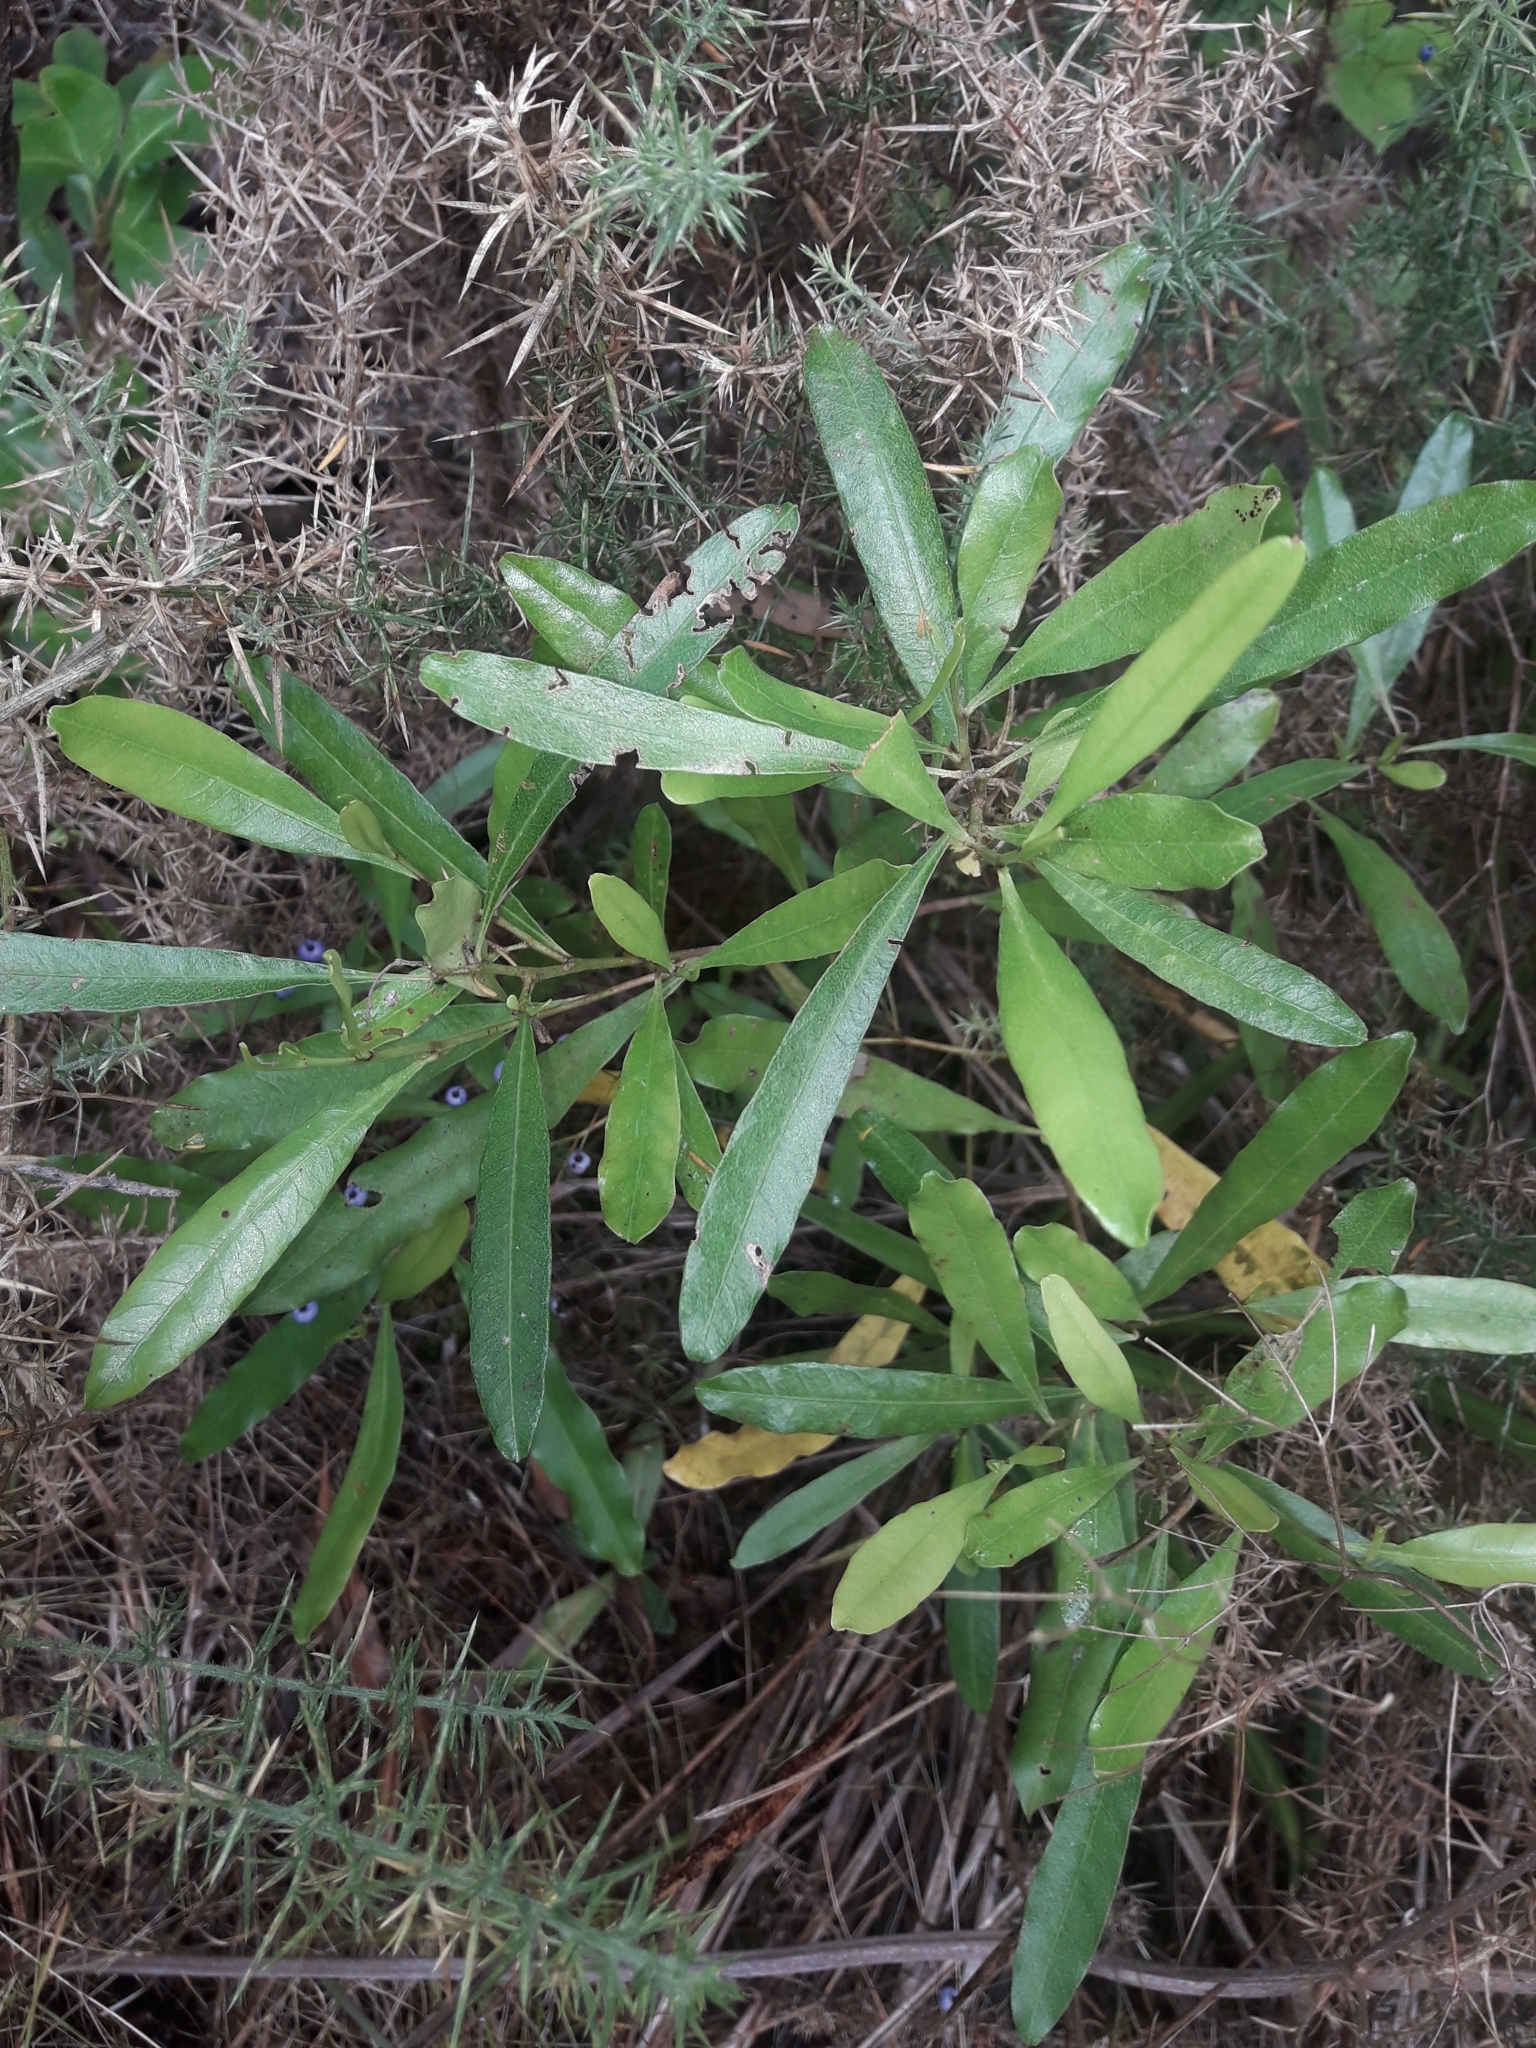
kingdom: Plantae
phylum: Tracheophyta
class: Magnoliopsida
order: Sapindales
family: Sapindaceae
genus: Dodonaea
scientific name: Dodonaea viscosa
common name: Hopbush
